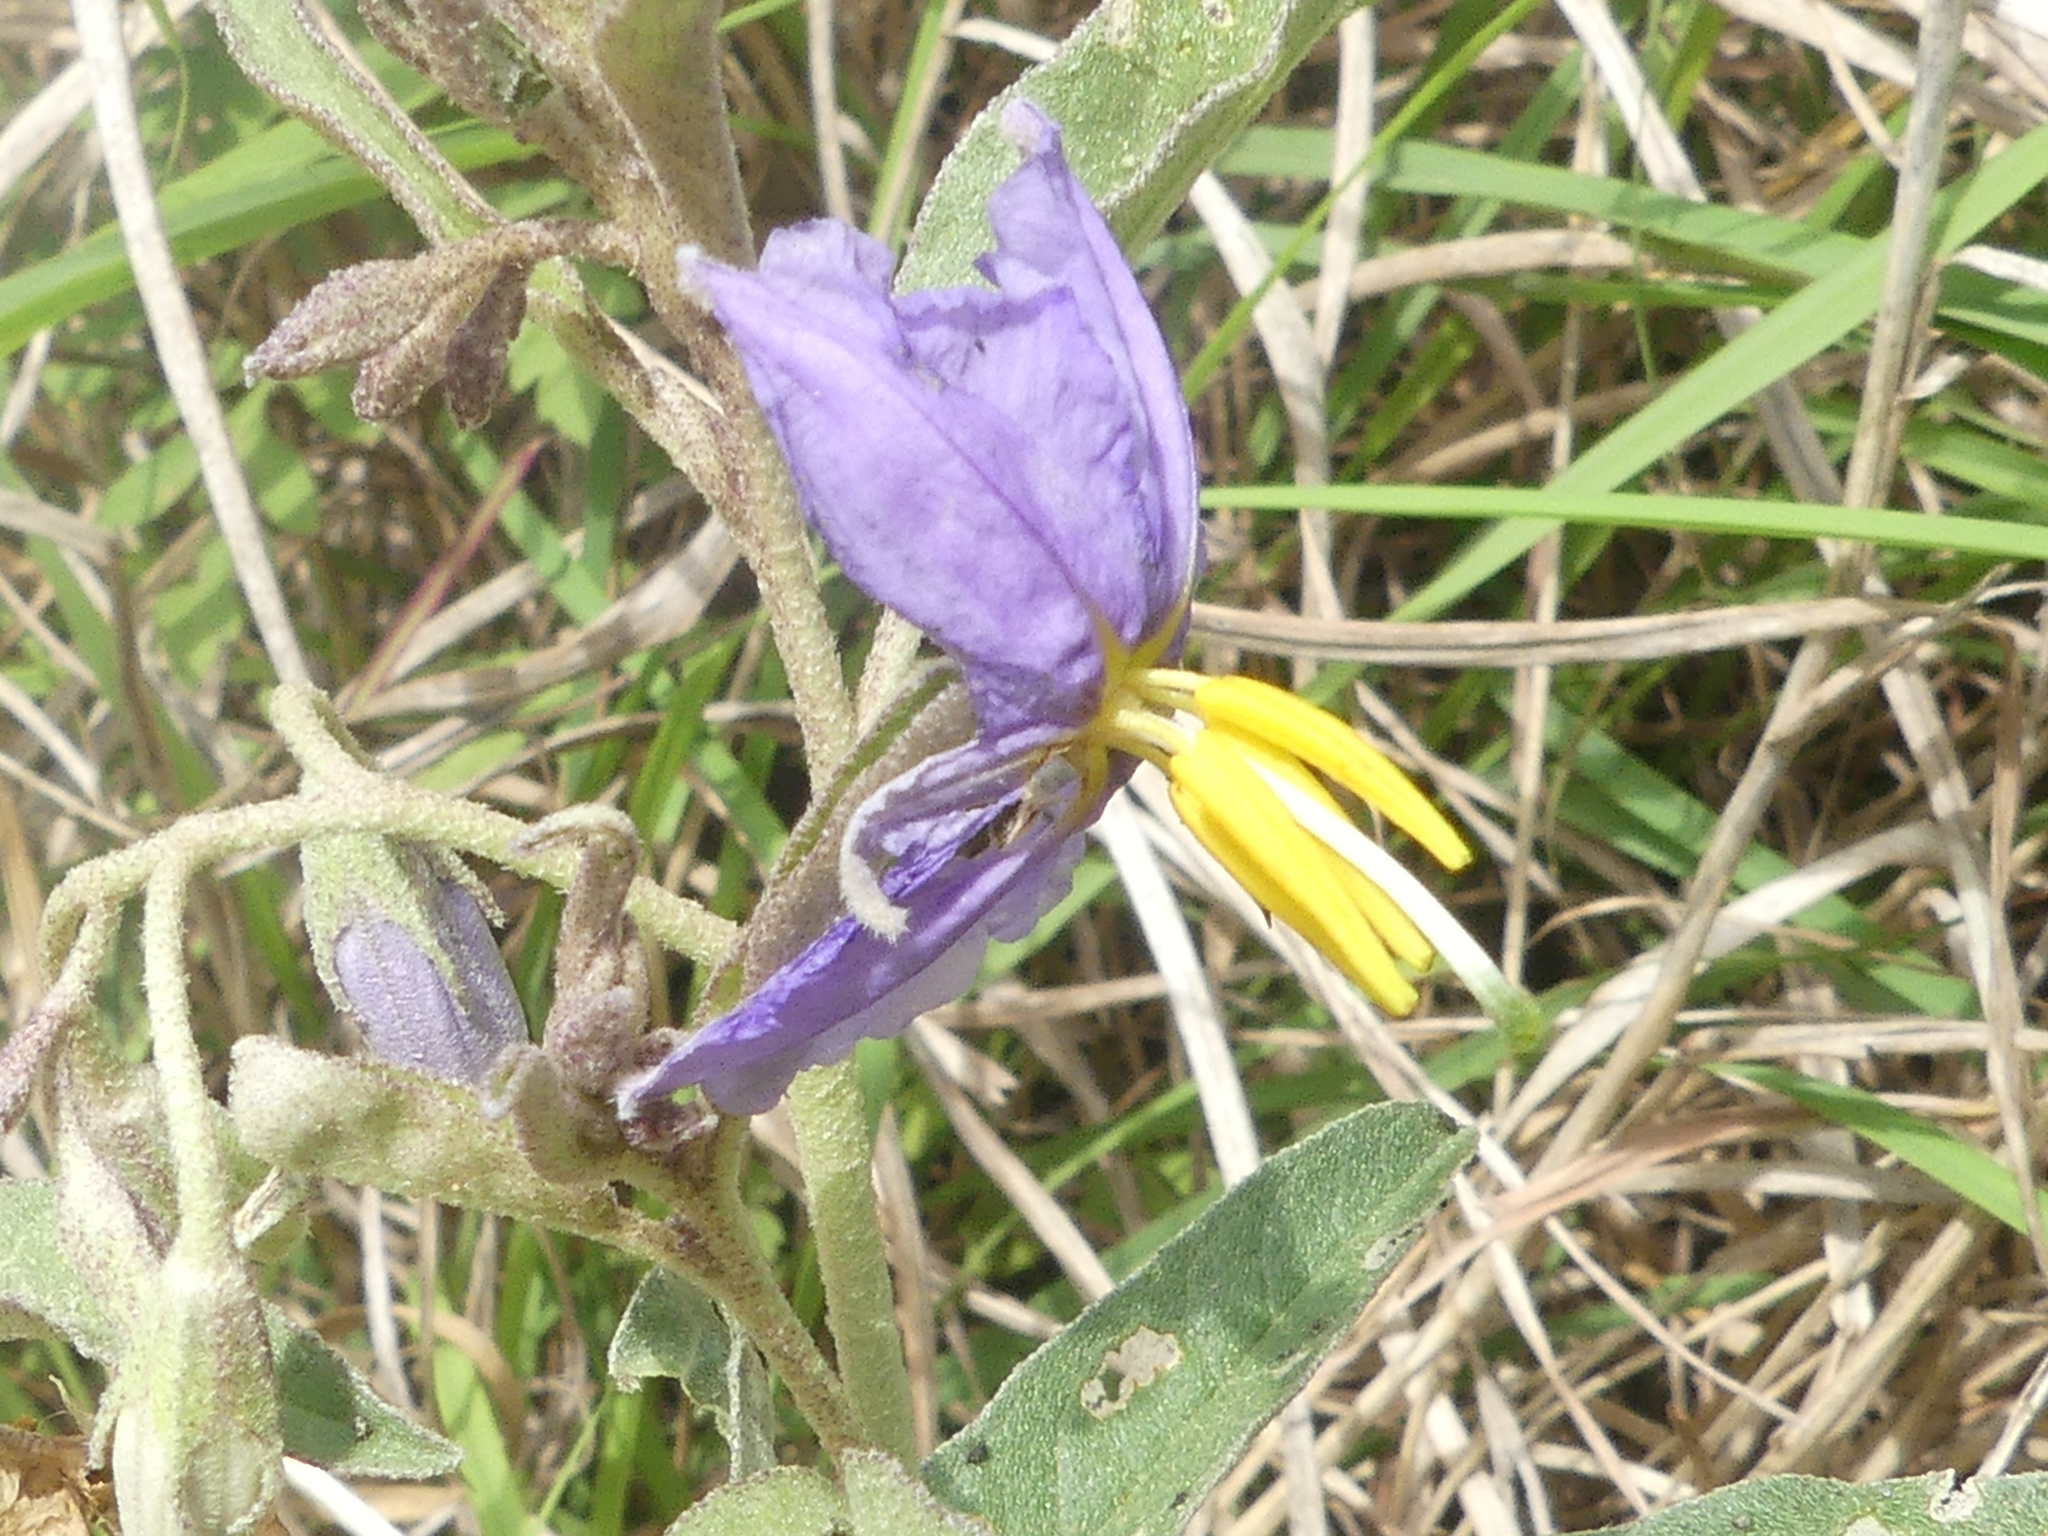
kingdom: Plantae
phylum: Tracheophyta
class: Magnoliopsida
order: Solanales
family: Solanaceae
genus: Solanum
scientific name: Solanum elaeagnifolium
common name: Silverleaf nightshade
